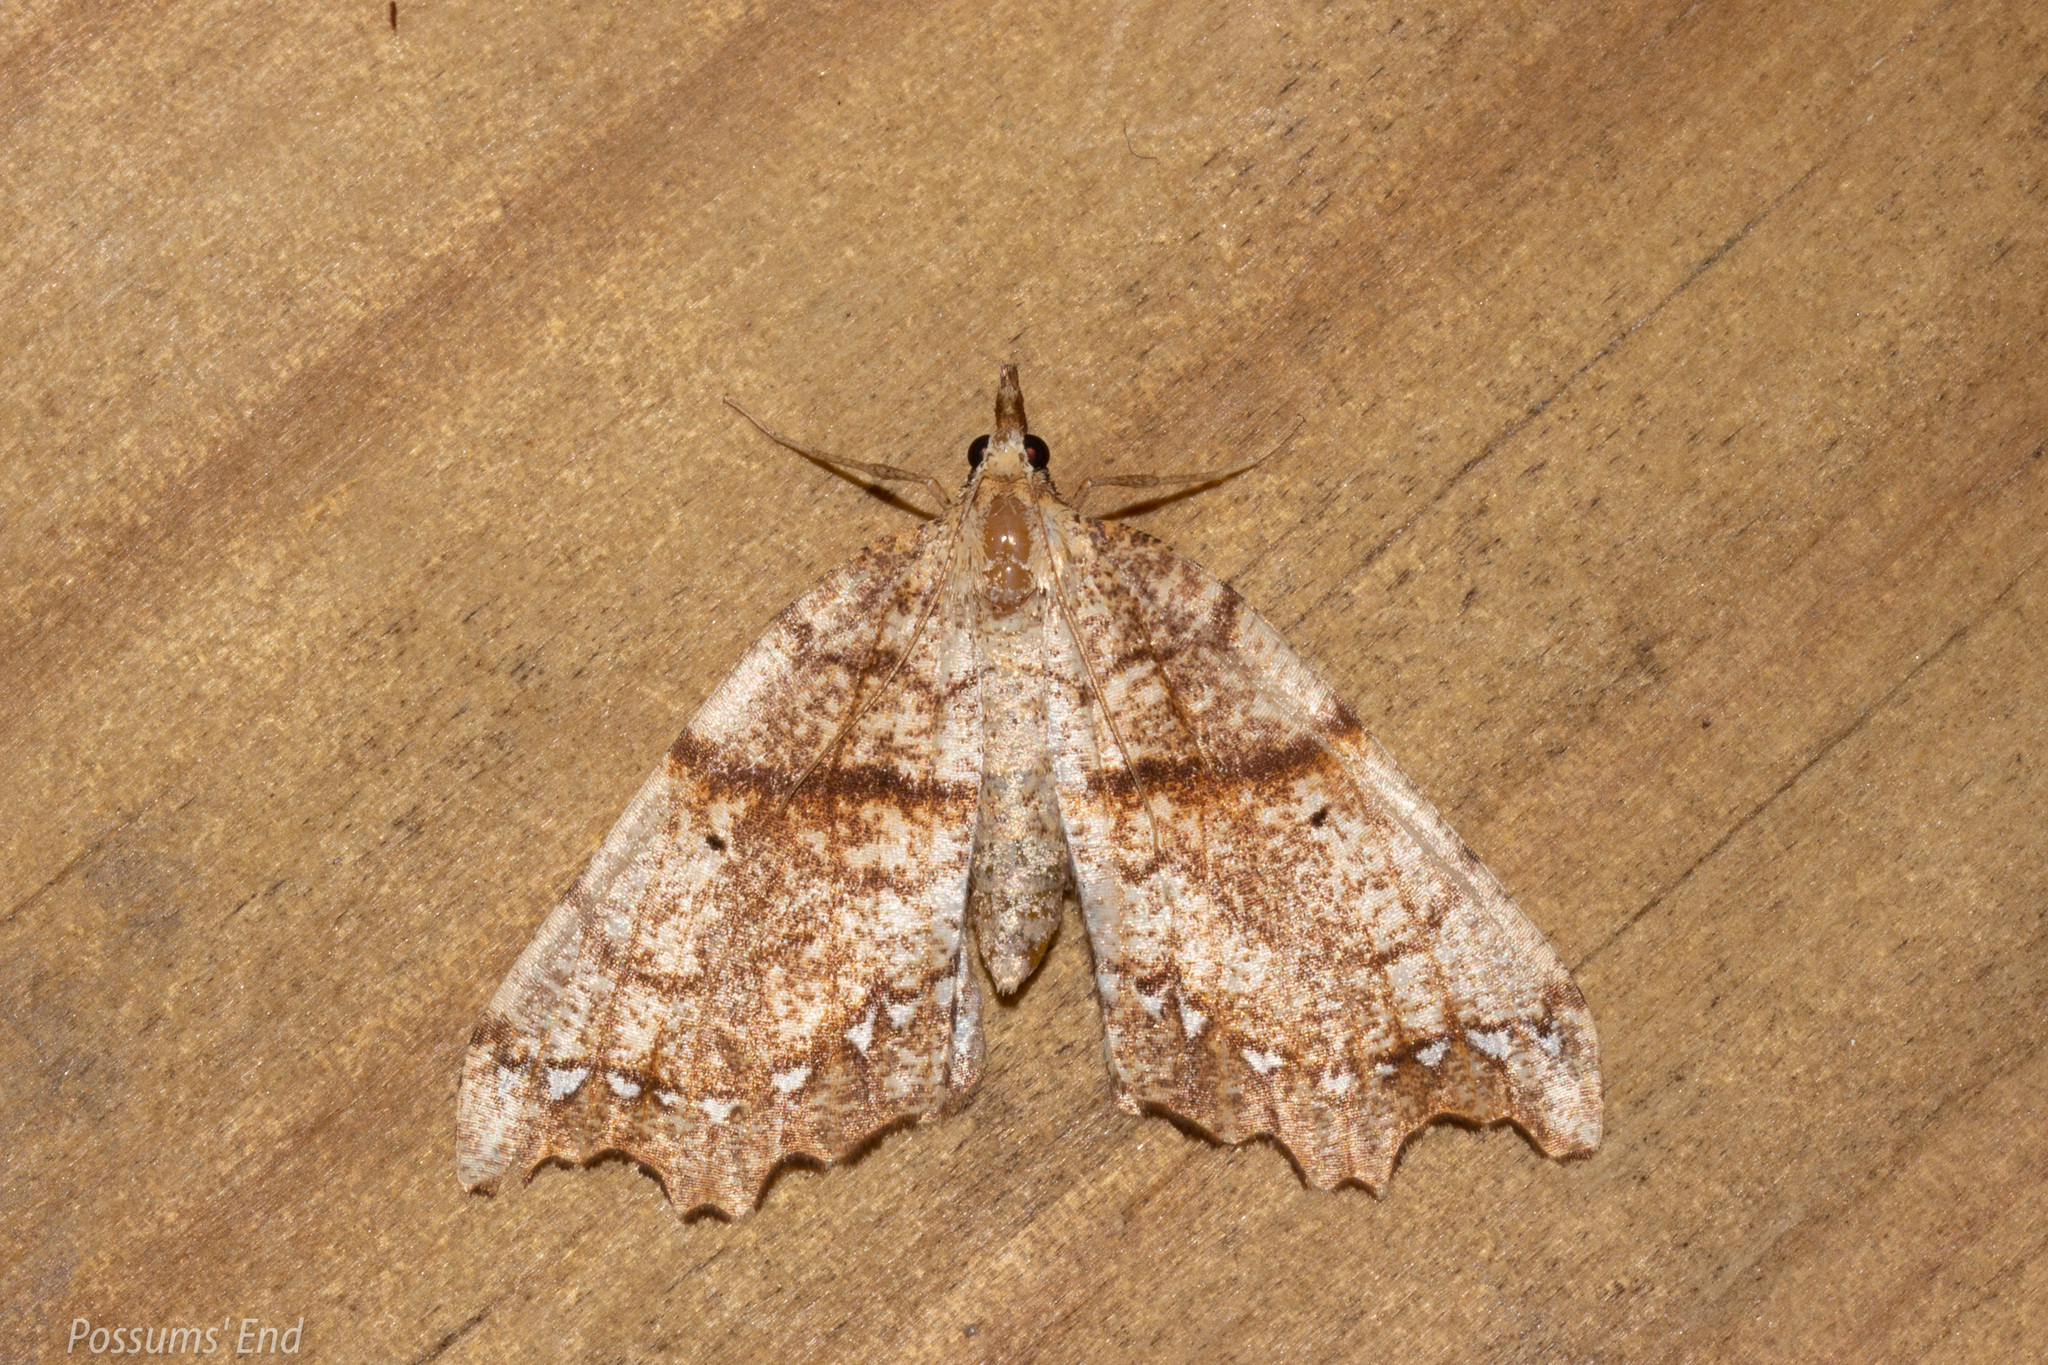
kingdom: Animalia
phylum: Arthropoda
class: Insecta
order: Lepidoptera
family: Geometridae
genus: Chalastra
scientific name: Chalastra pellurgata
